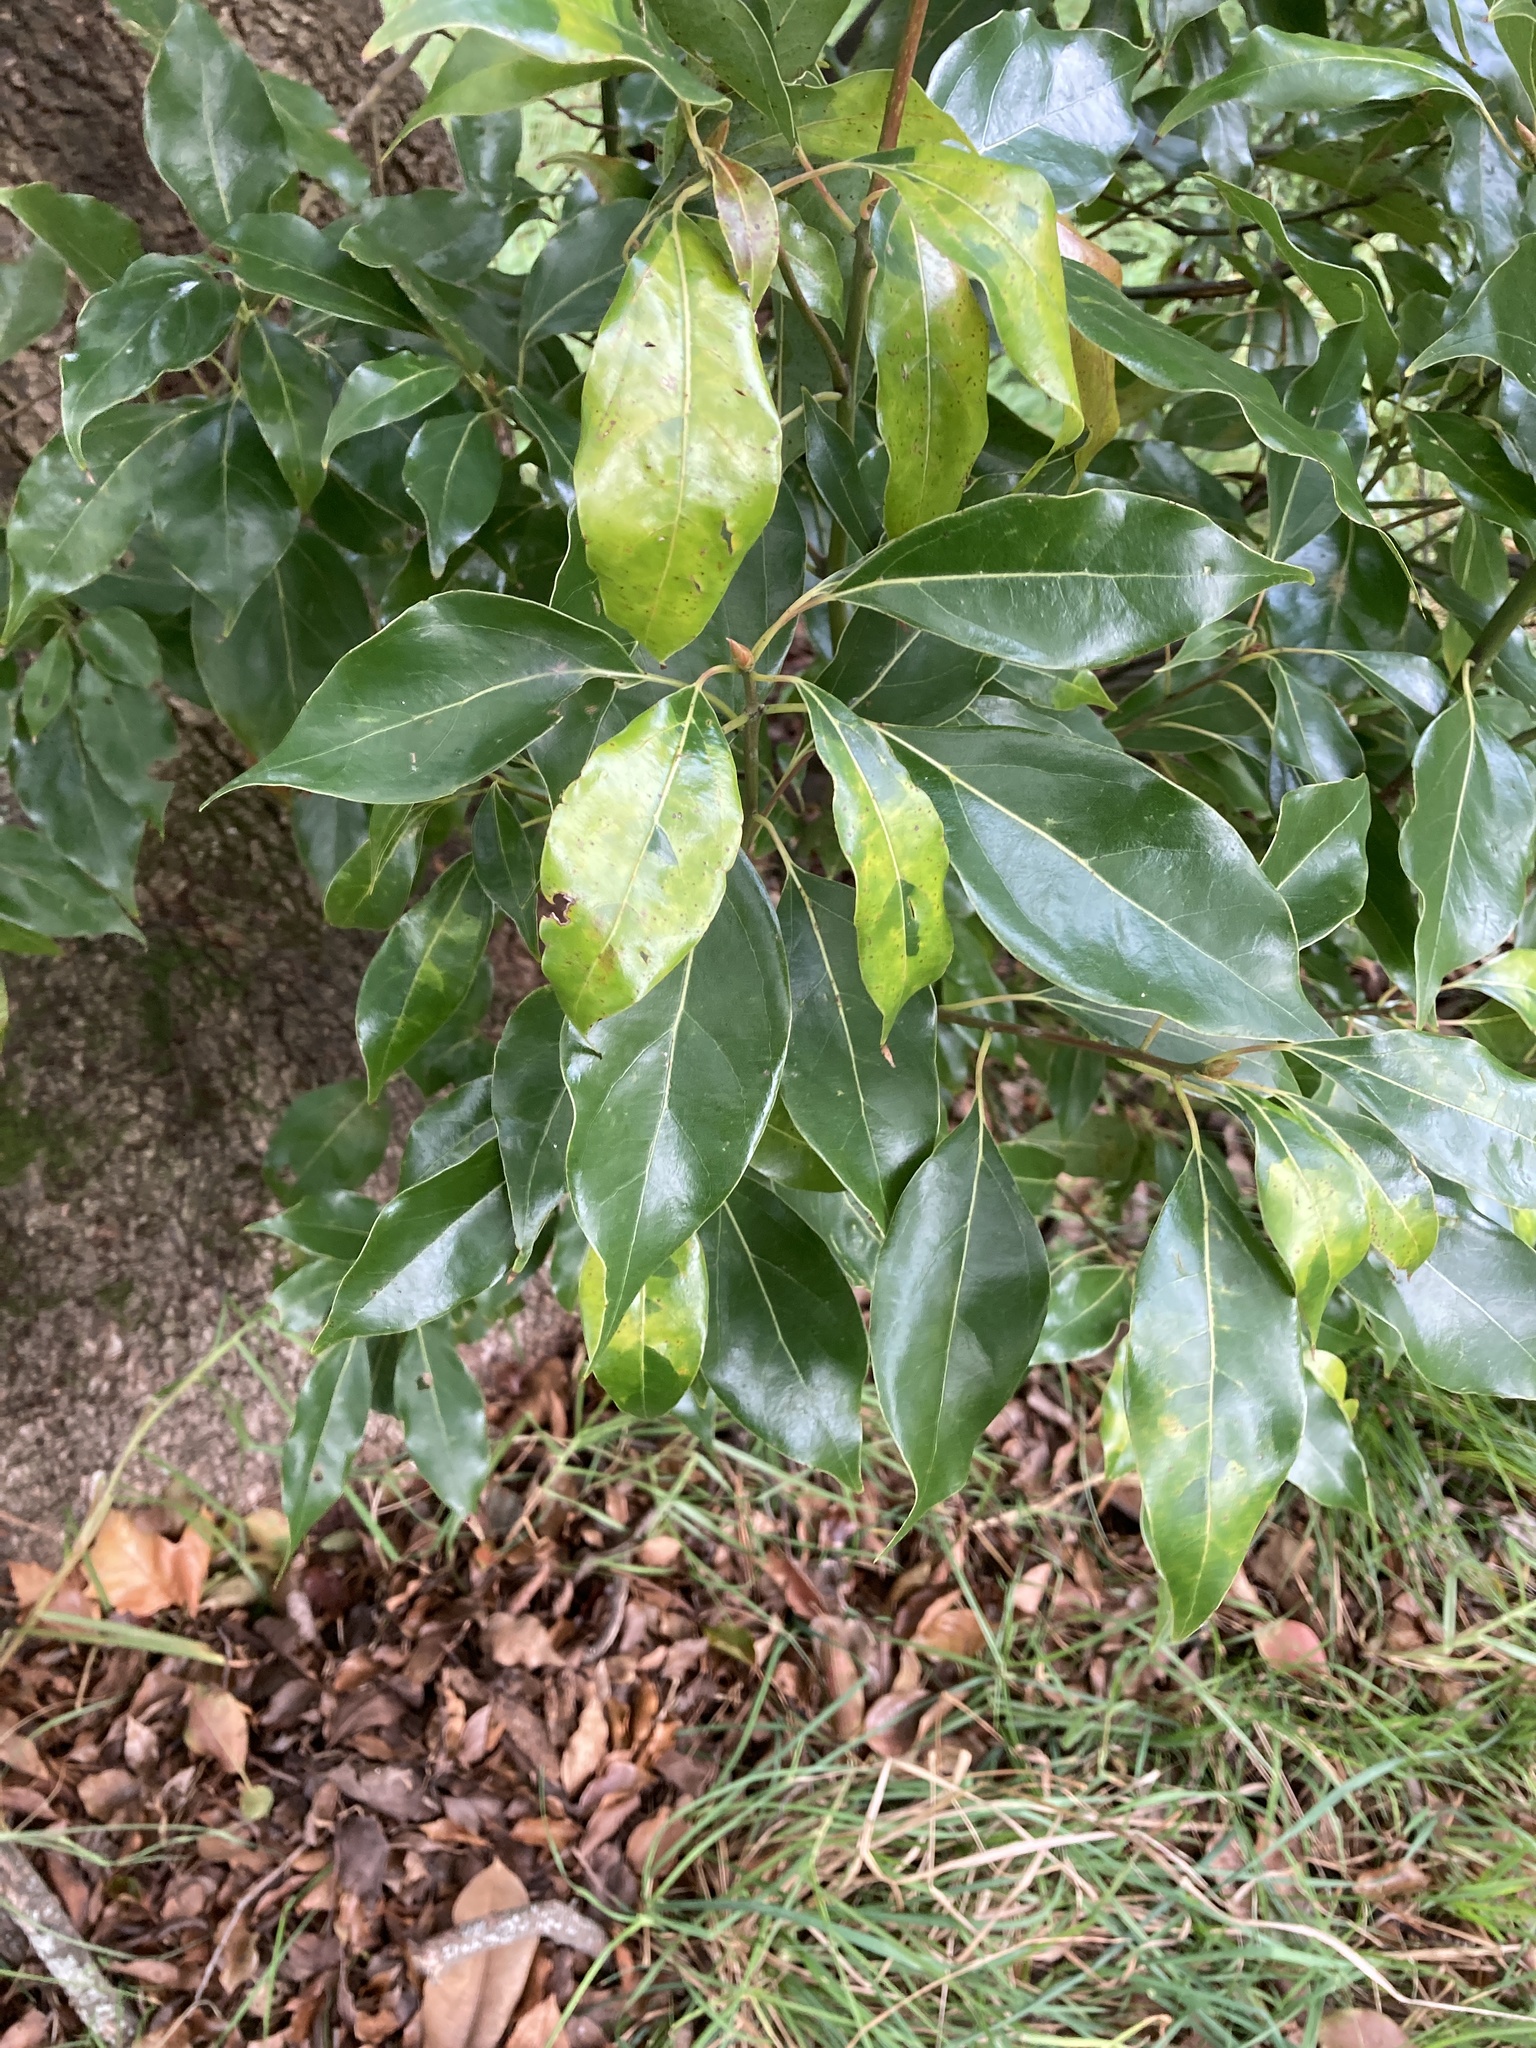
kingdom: Plantae
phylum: Tracheophyta
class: Magnoliopsida
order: Laurales
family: Lauraceae
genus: Cinnamomum
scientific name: Cinnamomum camphora
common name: Camphortree
